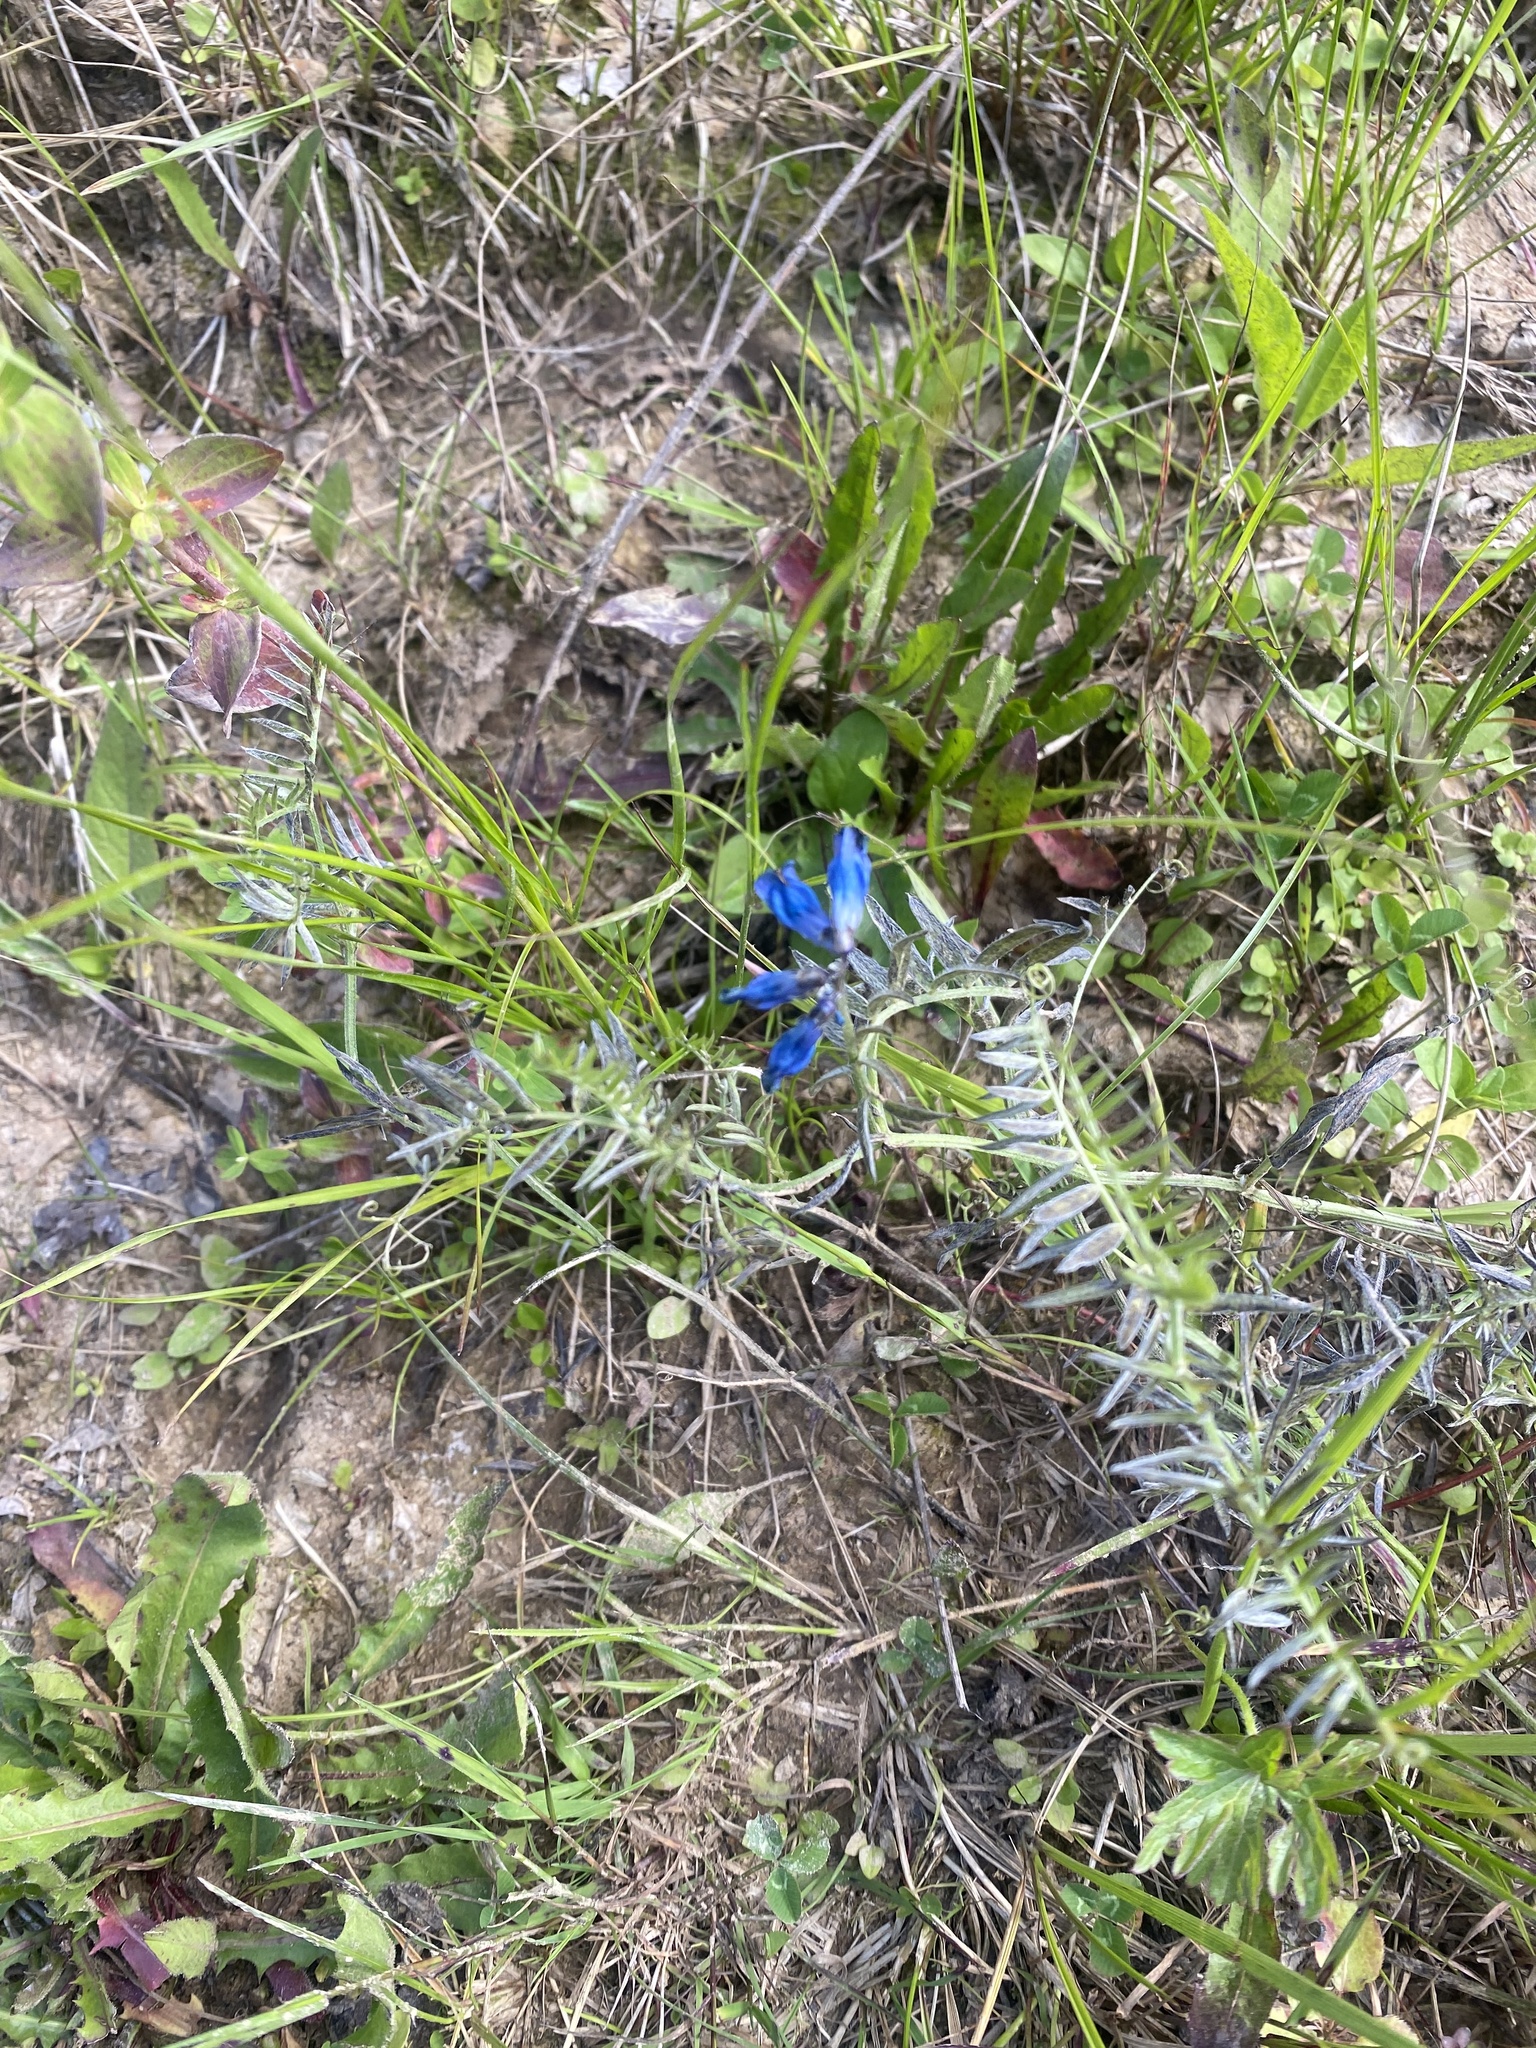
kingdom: Plantae
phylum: Tracheophyta
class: Magnoliopsida
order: Fabales
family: Fabaceae
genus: Vicia
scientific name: Vicia cracca
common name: Bird vetch
